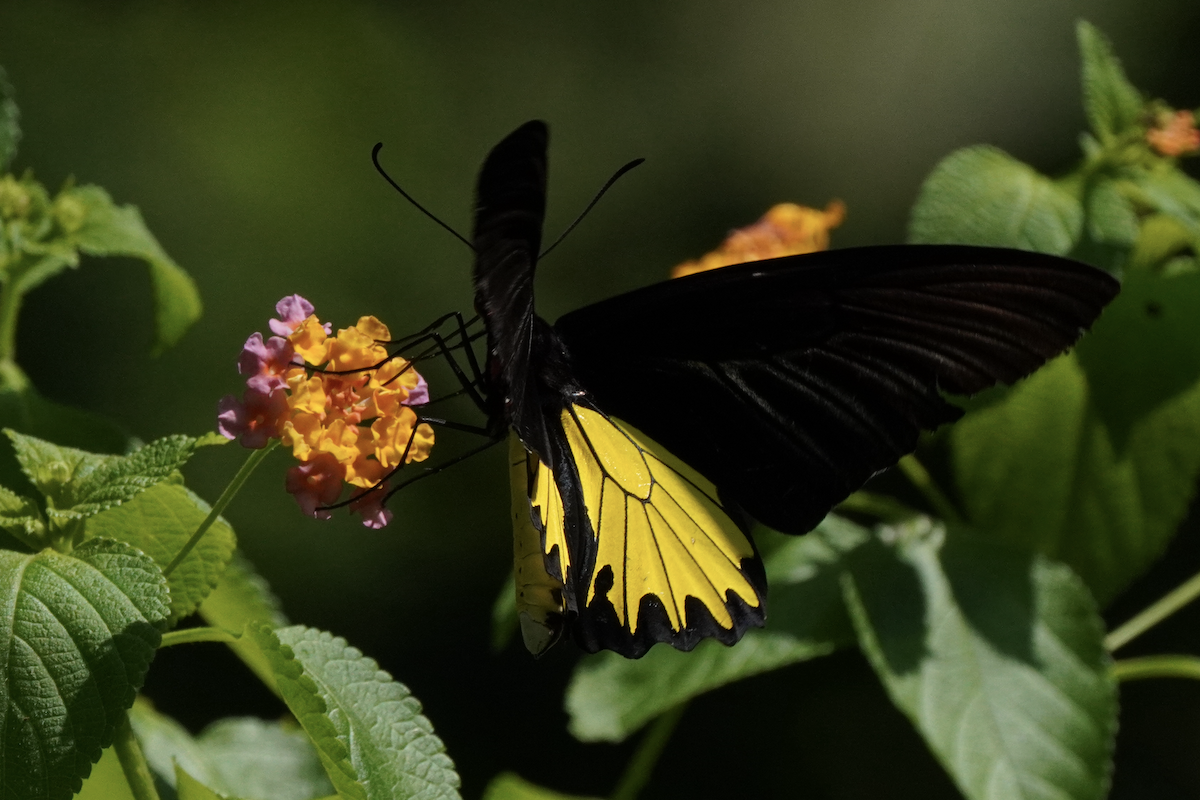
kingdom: Animalia
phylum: Arthropoda
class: Insecta
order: Lepidoptera
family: Papilionidae
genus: Troides
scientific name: Troides helena
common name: Common birdwing
